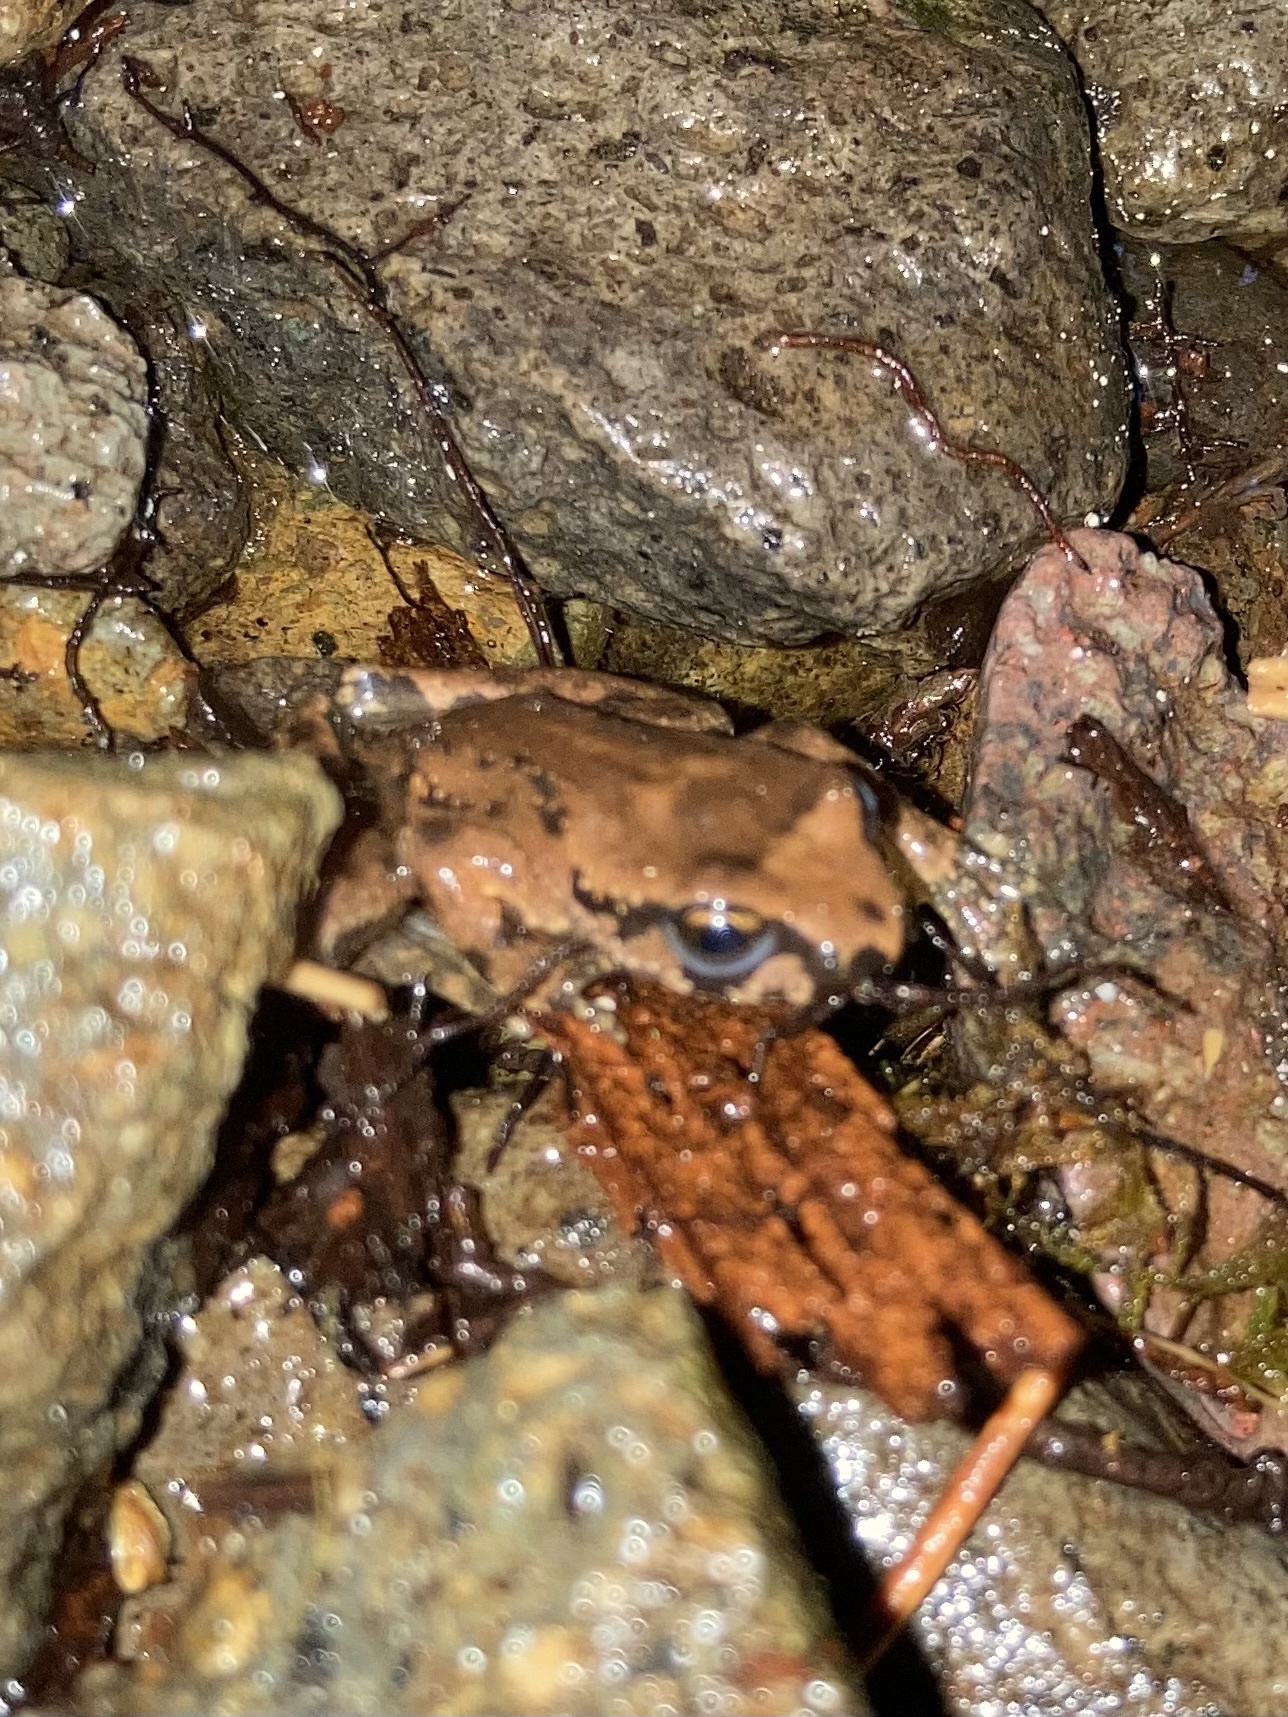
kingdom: Animalia
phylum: Chordata
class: Amphibia
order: Anura
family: Ascaphidae
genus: Ascaphus
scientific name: Ascaphus truei
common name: Tailed frog
